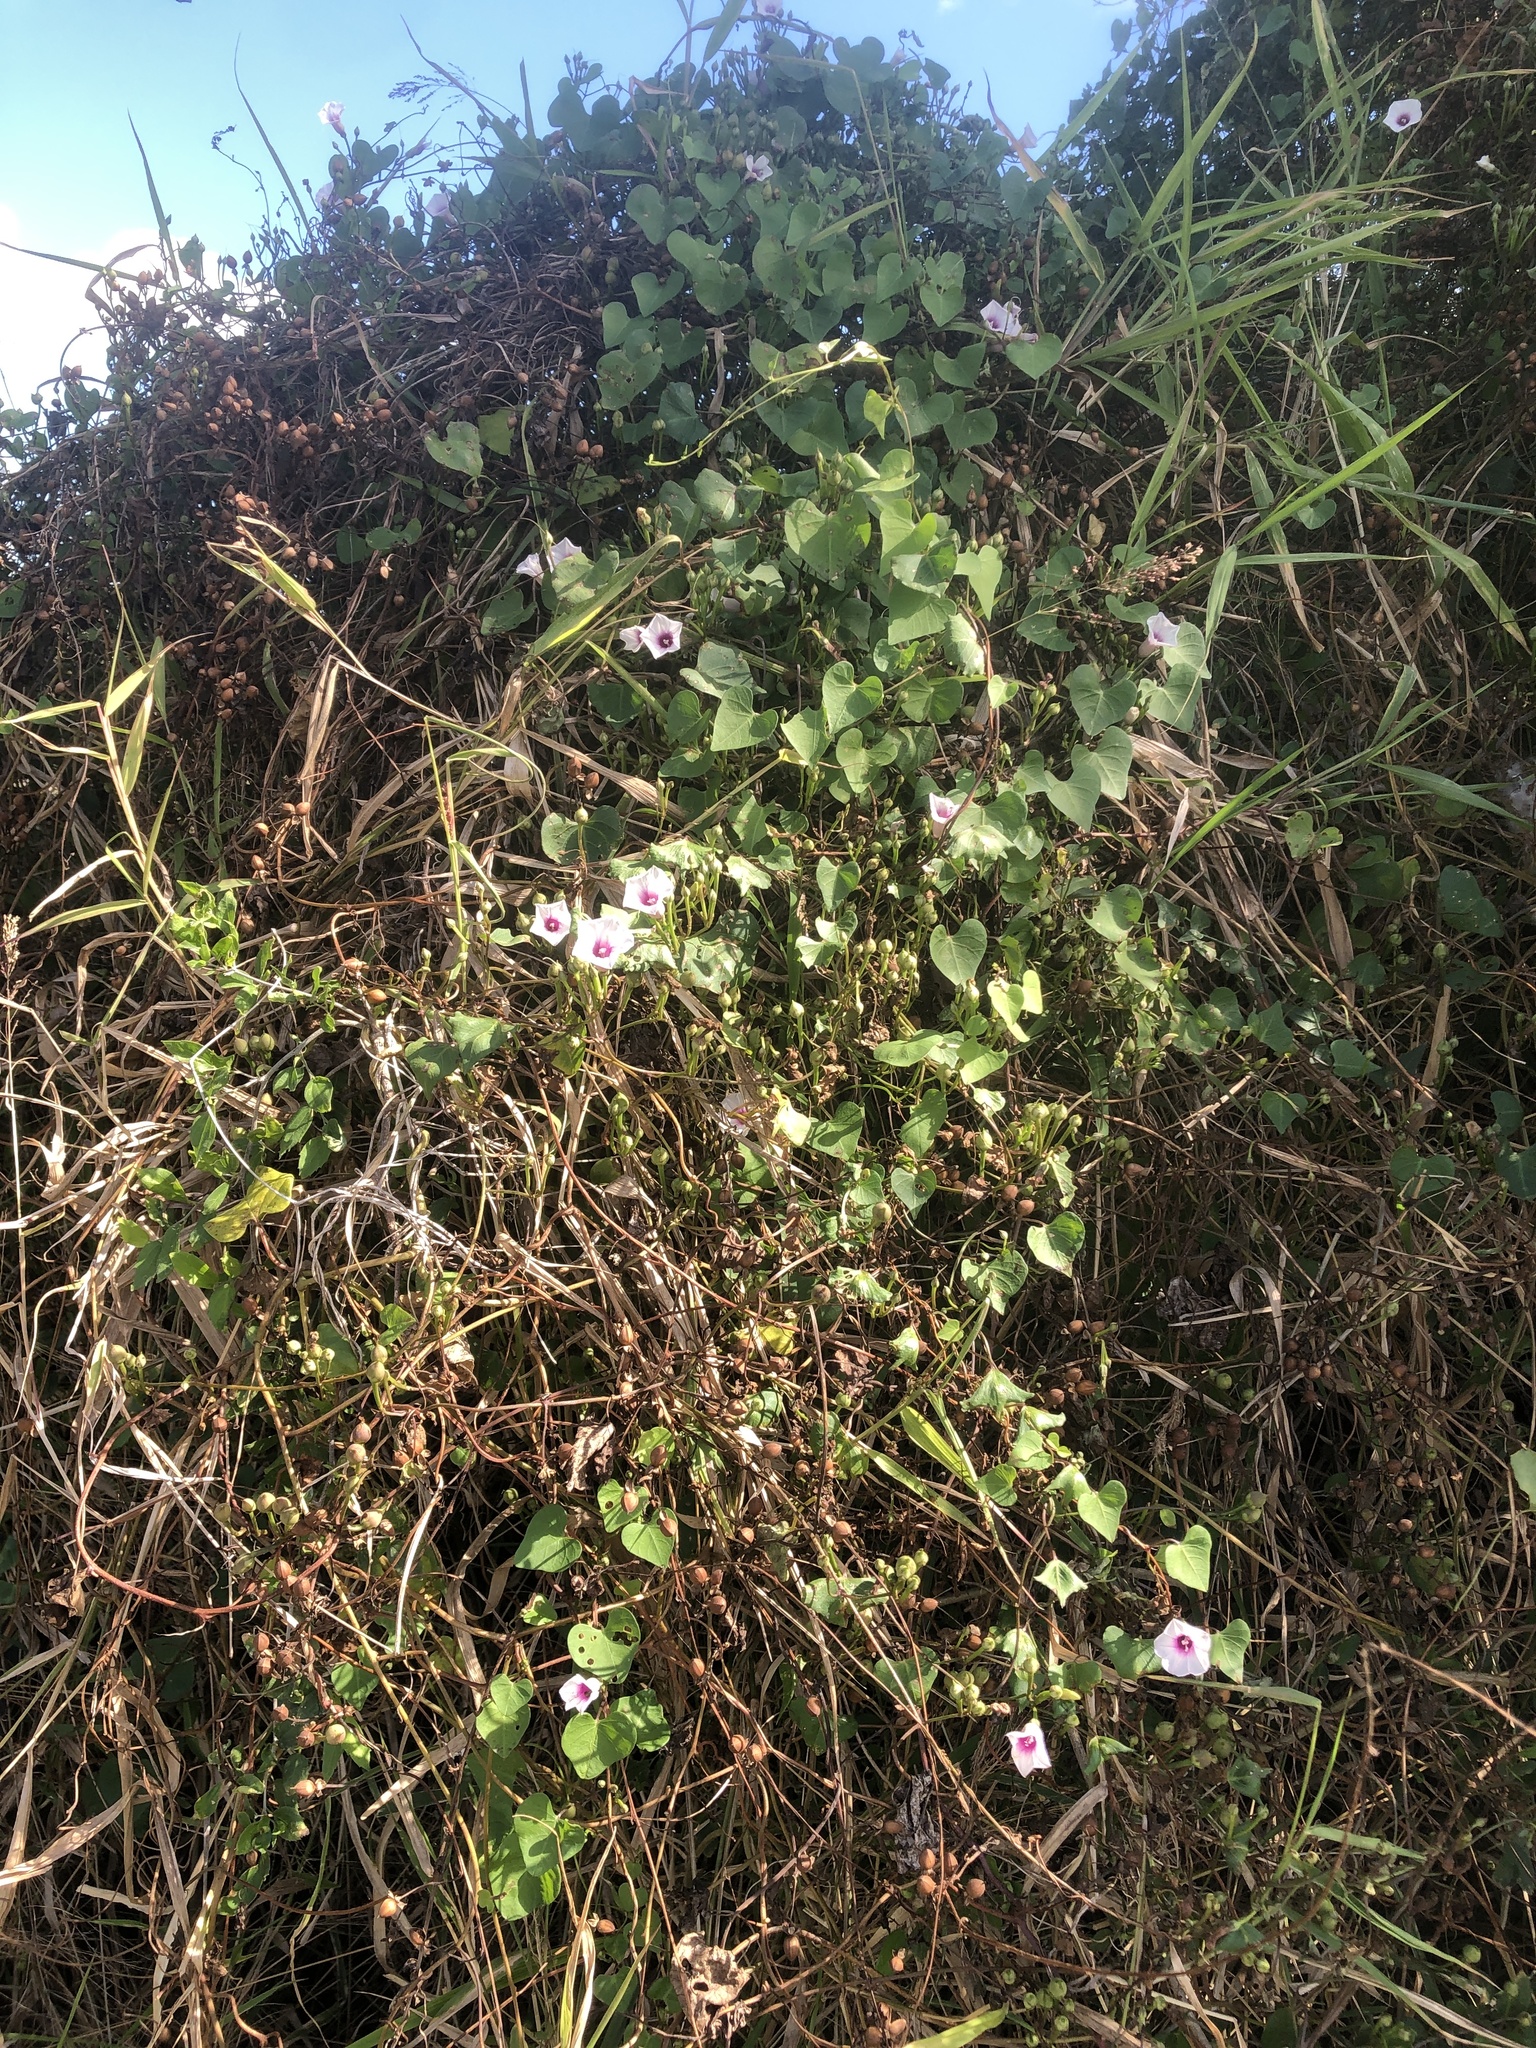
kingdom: Plantae
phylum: Tracheophyta
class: Magnoliopsida
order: Solanales
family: Convolvulaceae
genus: Ipomoea
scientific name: Ipomoea amnicola
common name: Redcenter morning-glory
